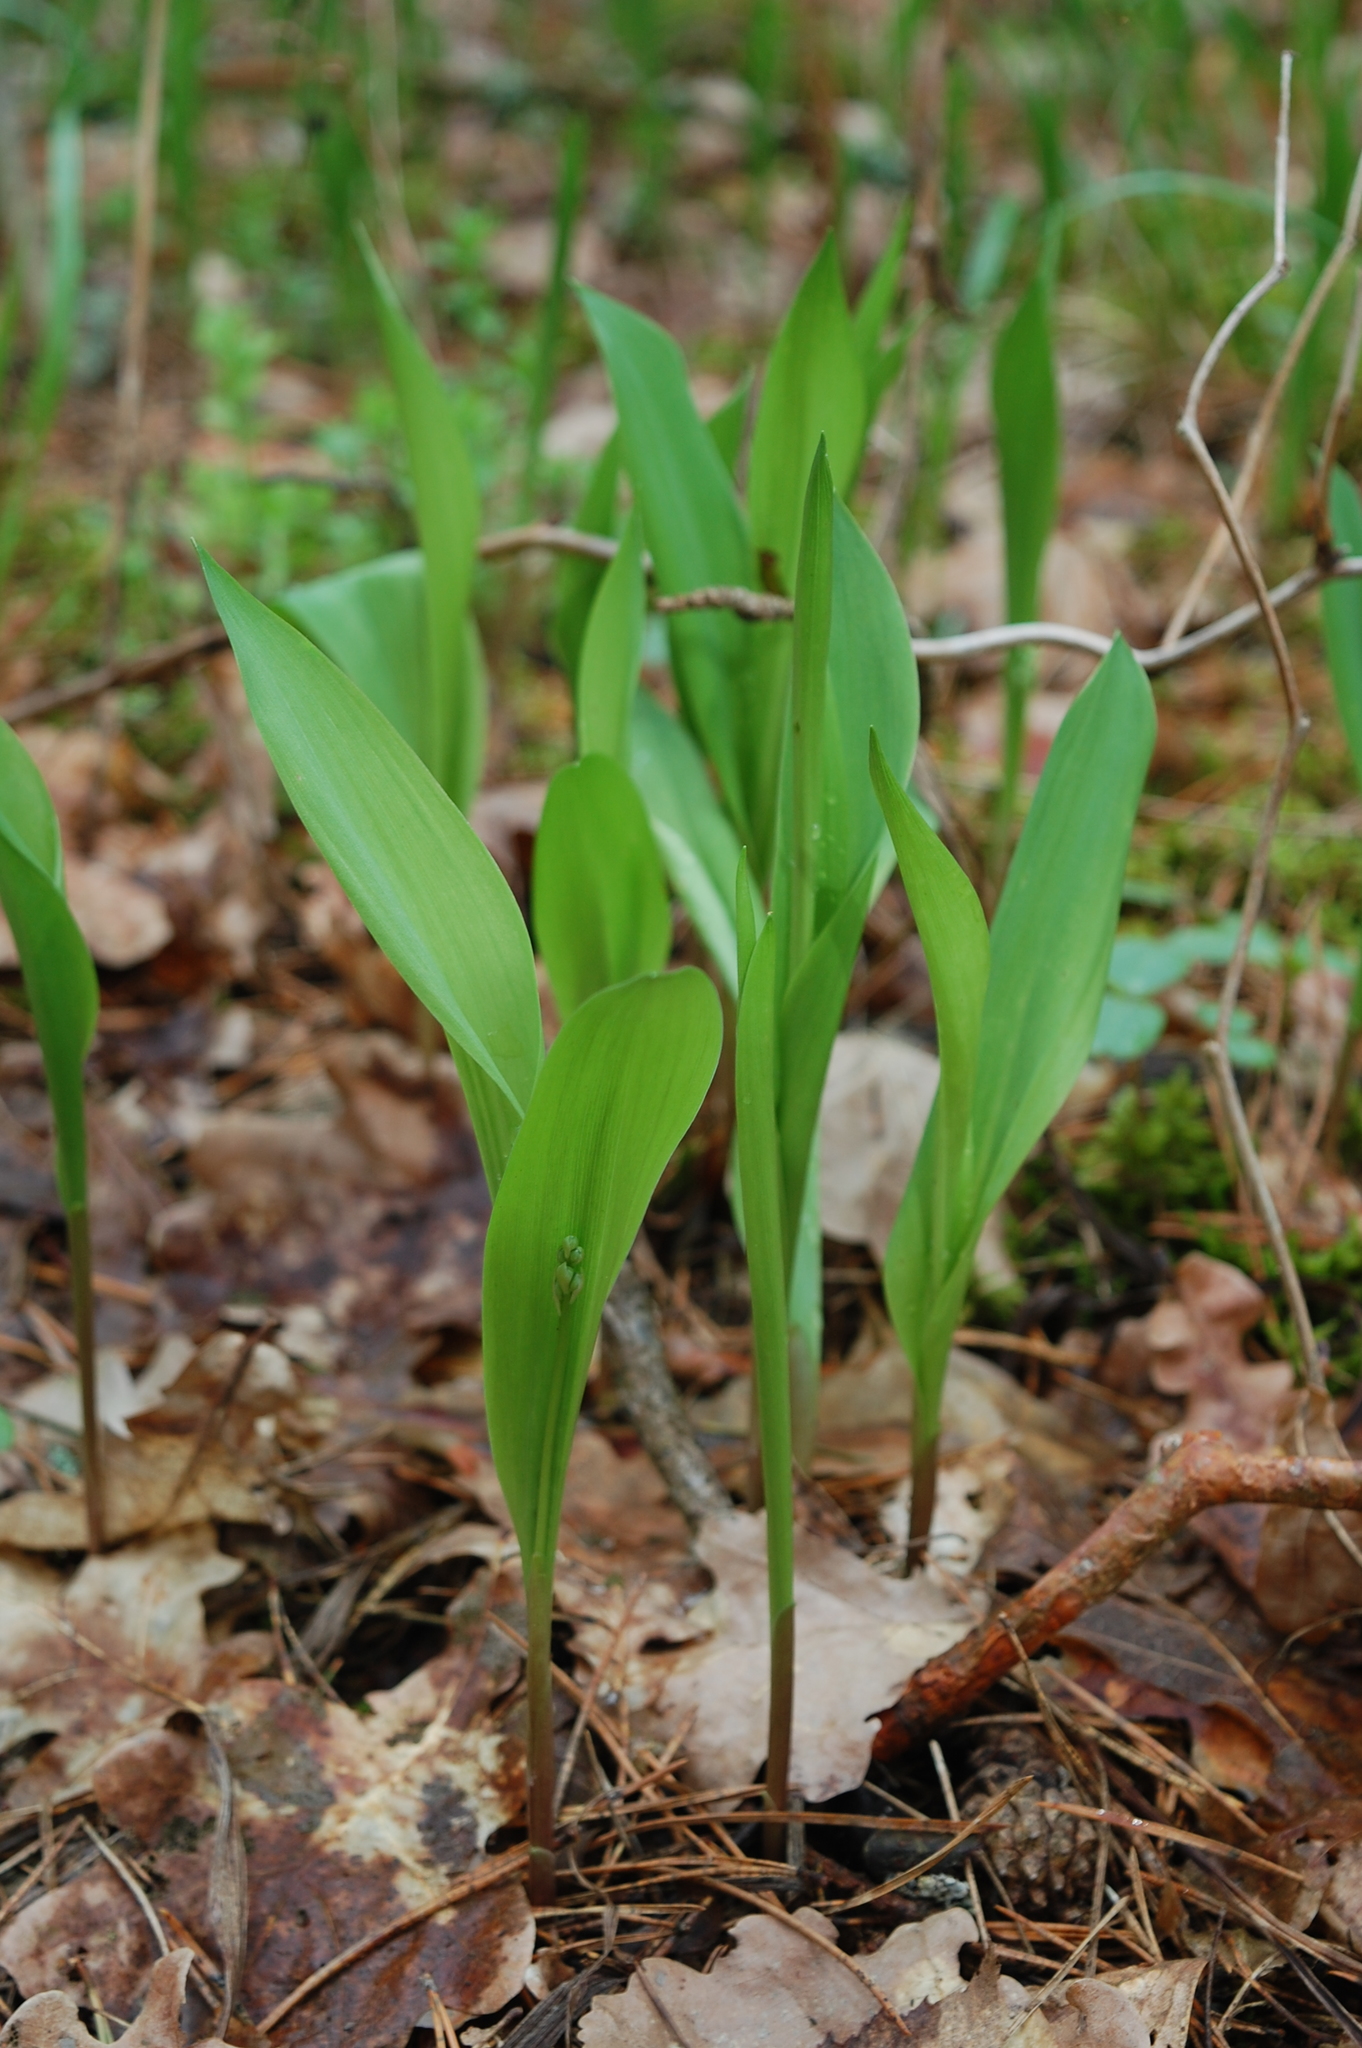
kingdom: Plantae
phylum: Tracheophyta
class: Liliopsida
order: Asparagales
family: Asparagaceae
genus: Convallaria
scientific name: Convallaria majalis
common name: Lily-of-the-valley
